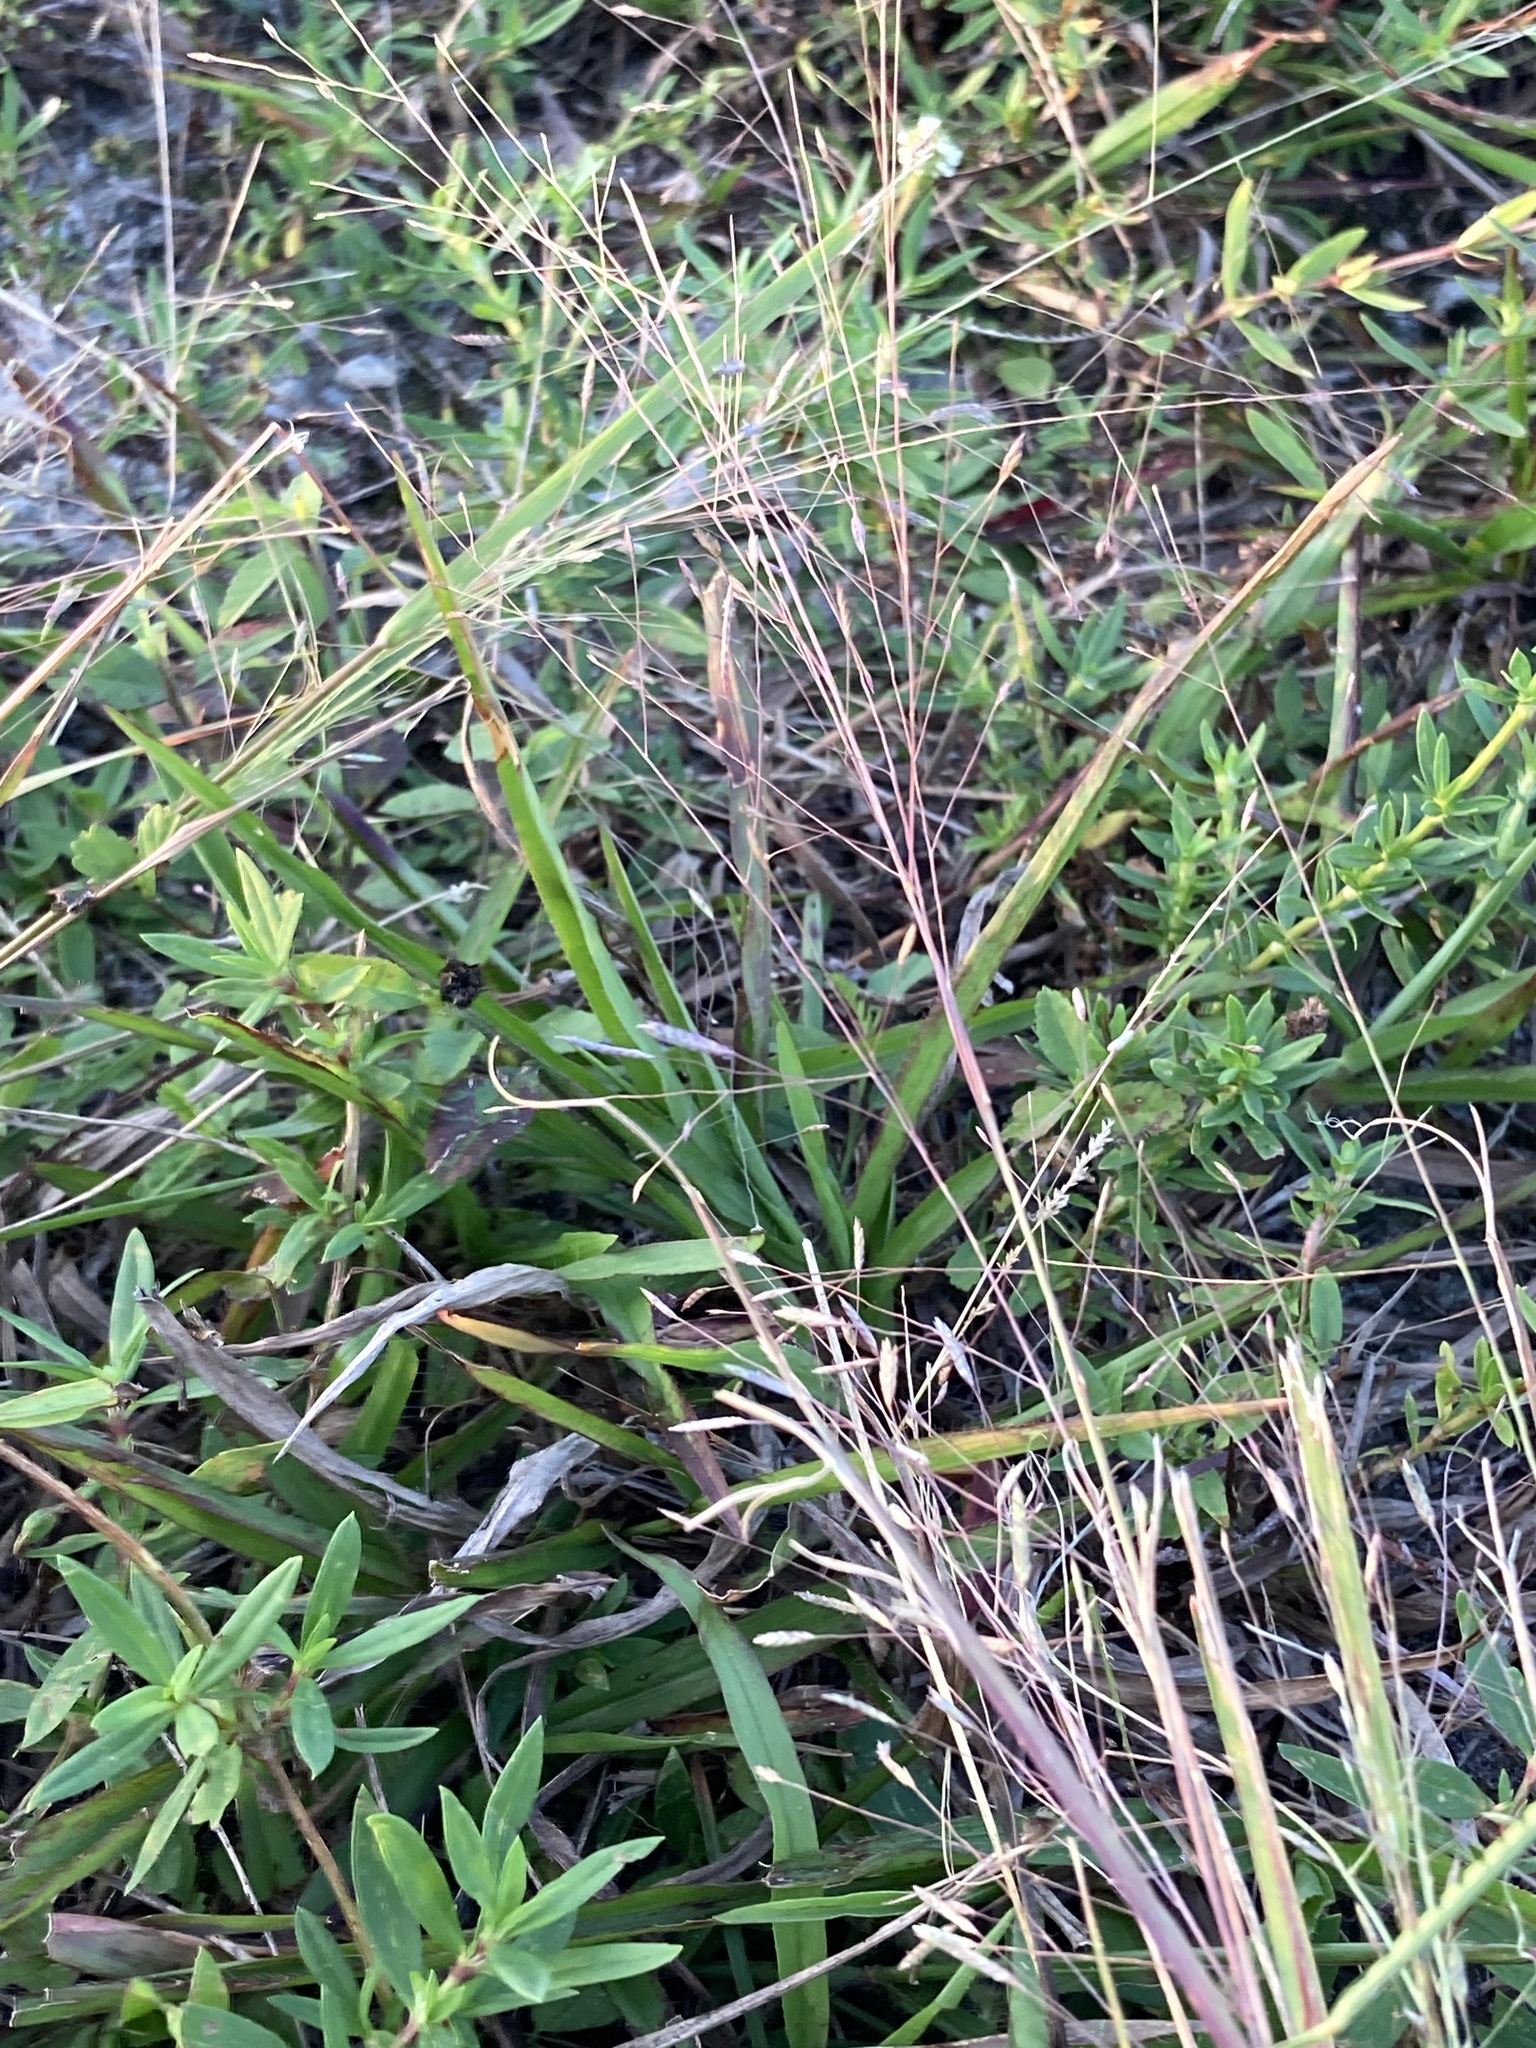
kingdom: Plantae
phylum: Tracheophyta
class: Liliopsida
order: Poales
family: Poaceae
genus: Eragrostis
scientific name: Eragrostis elliottii
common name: Elliott's love grass
